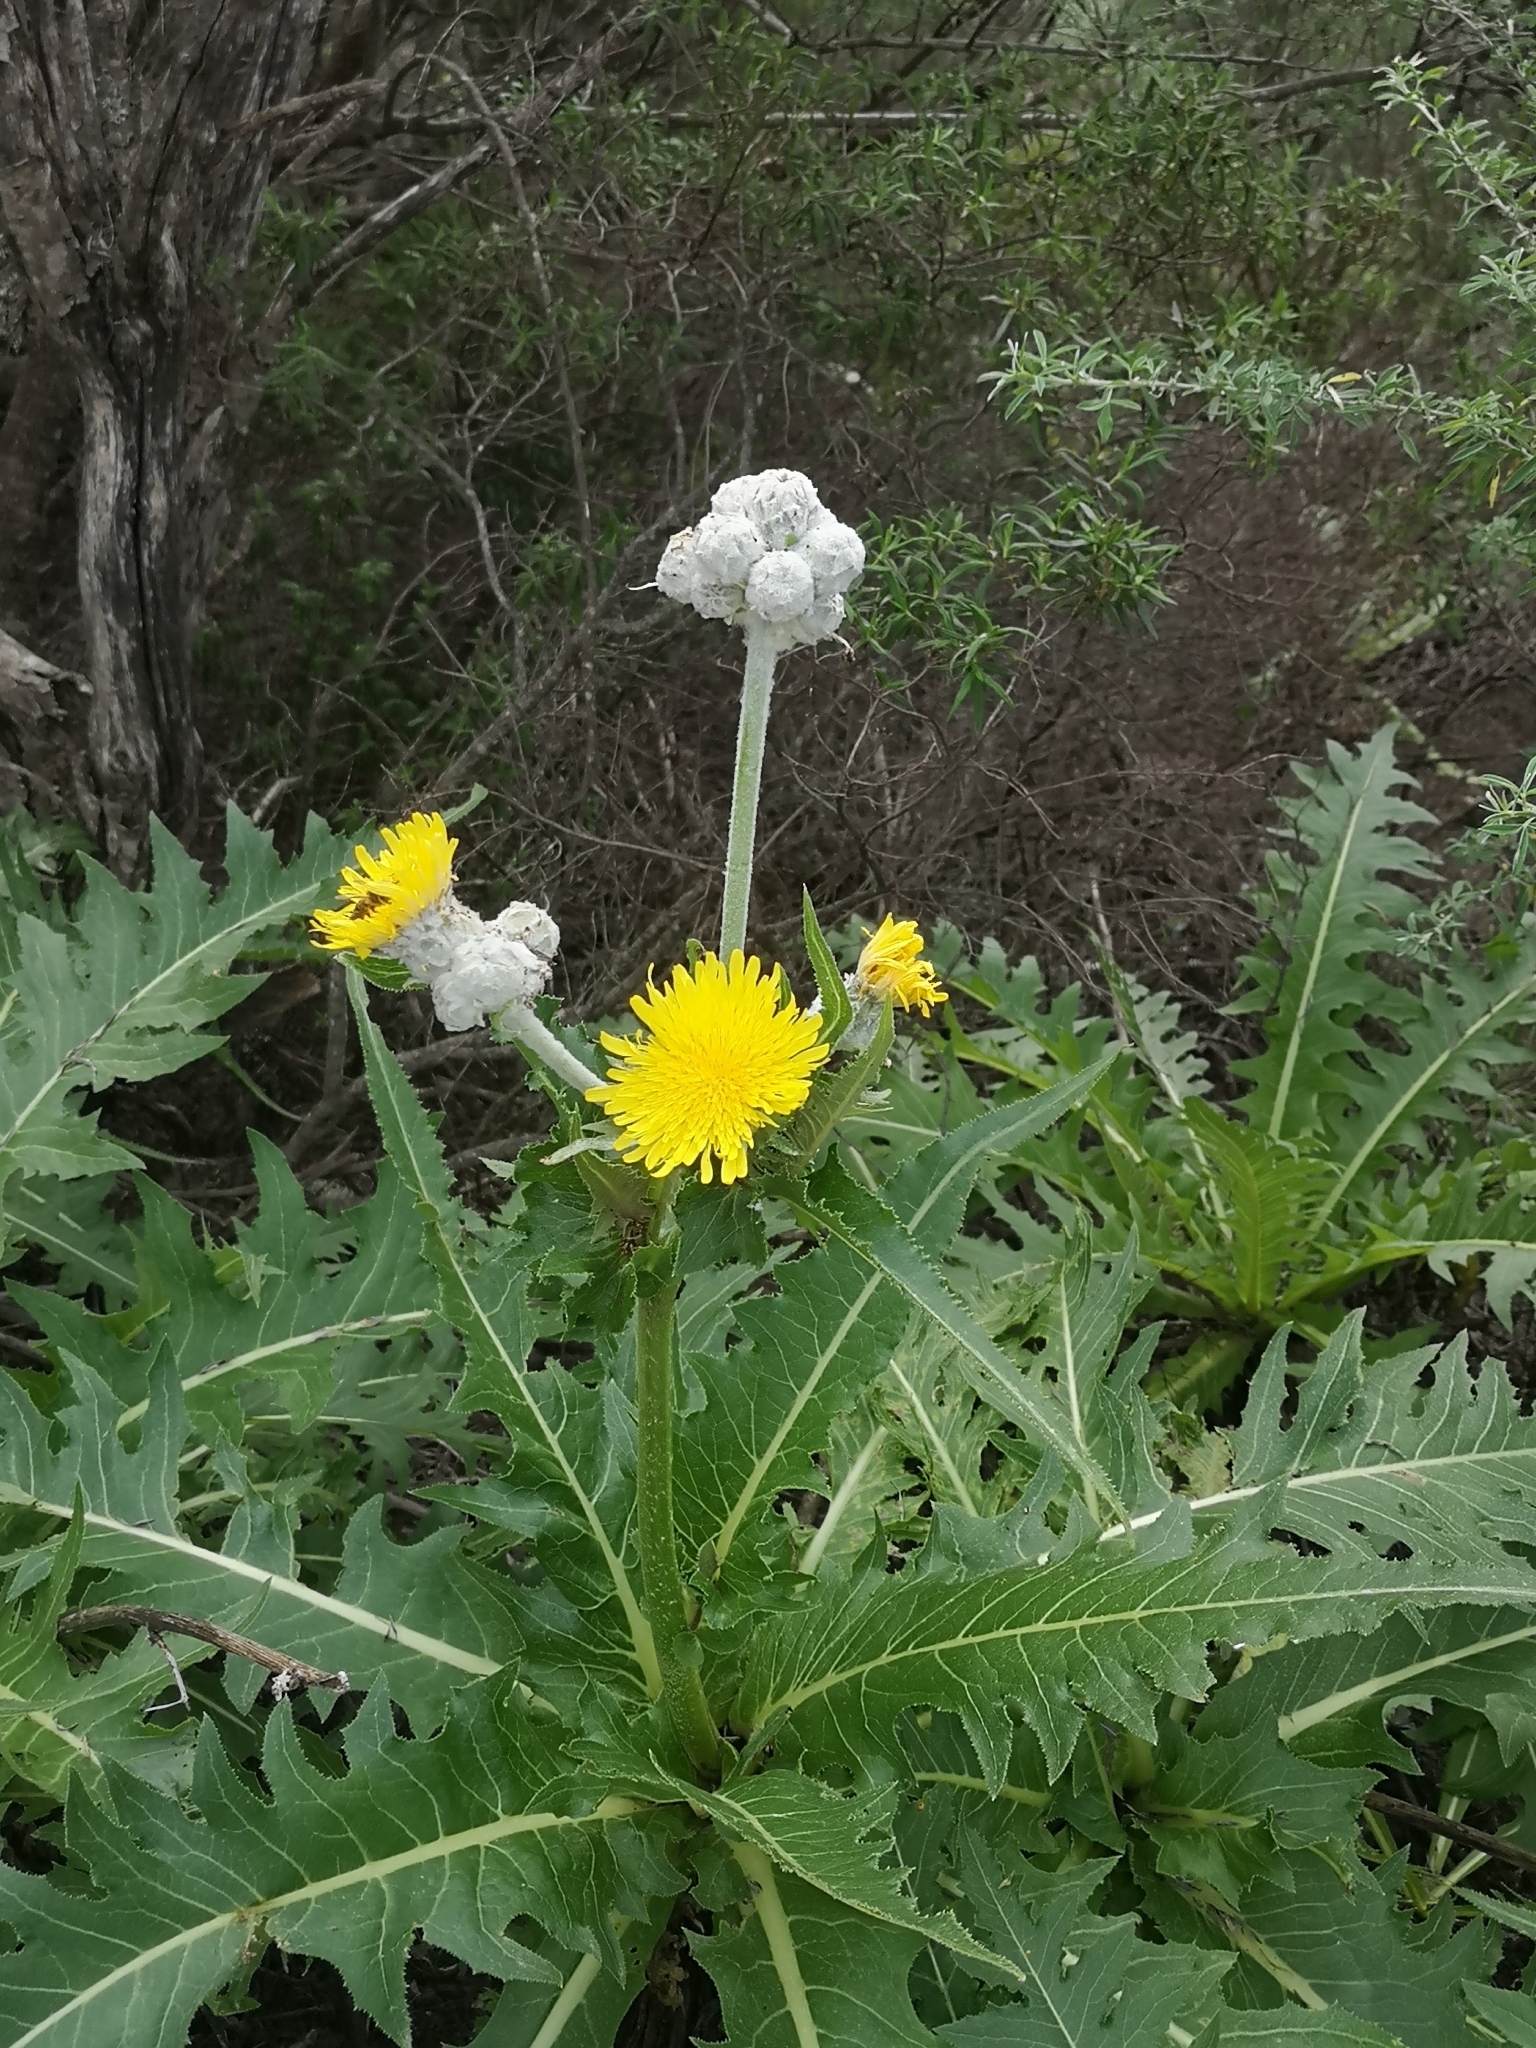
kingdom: Plantae
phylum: Tracheophyta
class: Magnoliopsida
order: Asterales
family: Asteraceae
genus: Sonchus
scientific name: Sonchus acaulis
